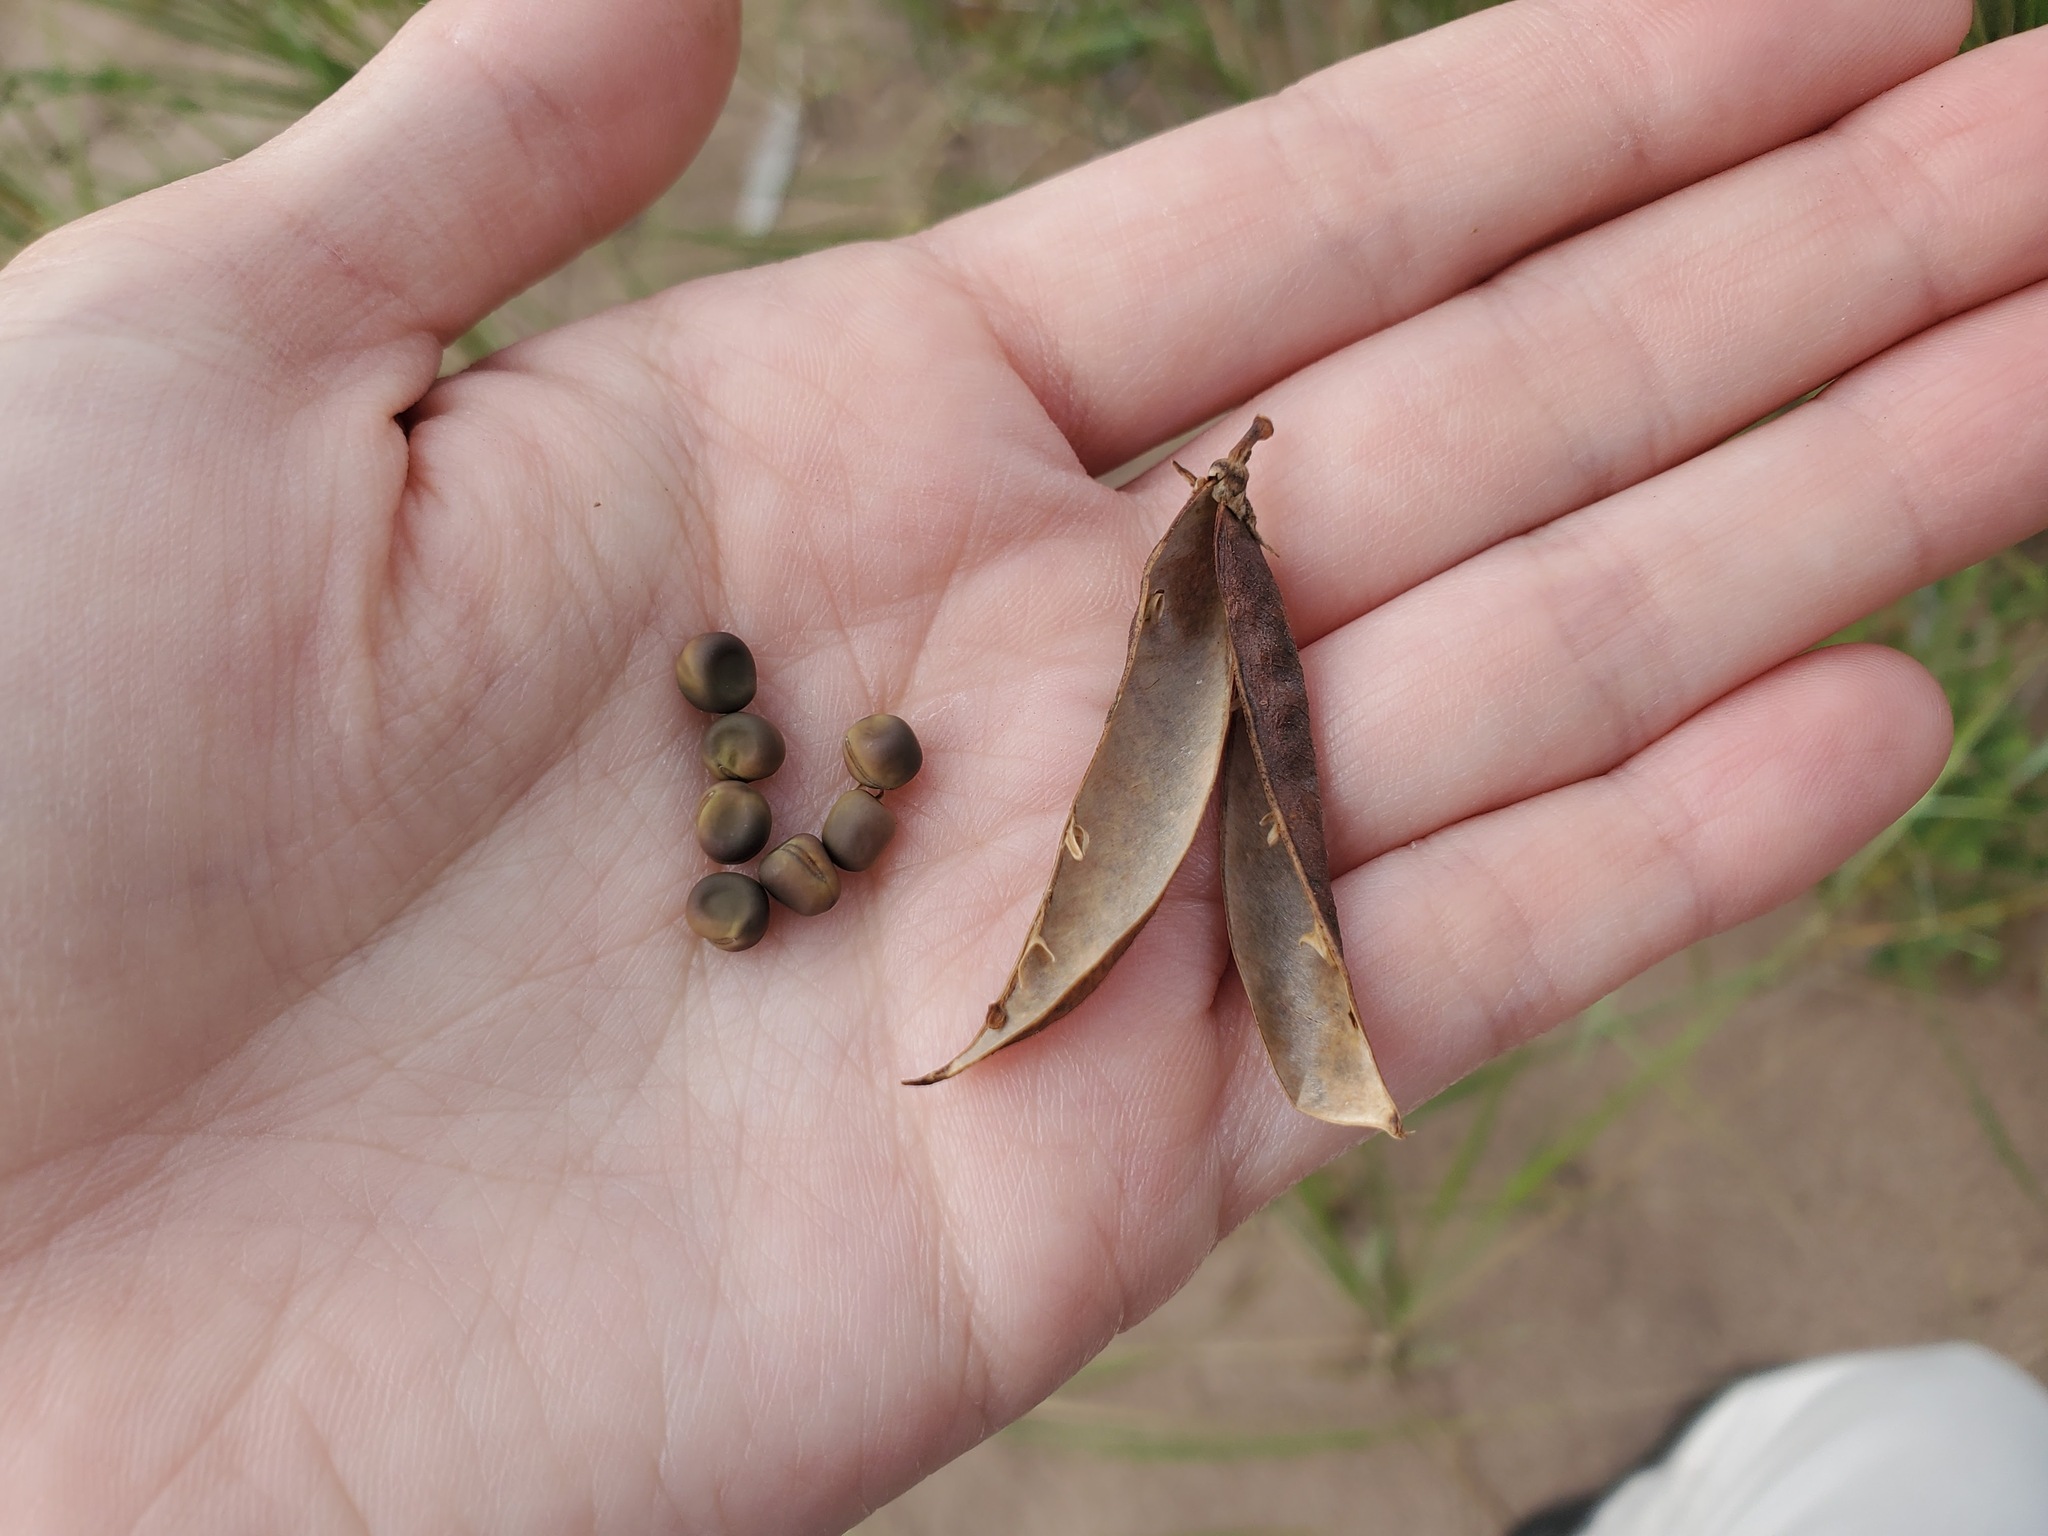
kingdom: Plantae
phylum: Tracheophyta
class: Magnoliopsida
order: Fabales
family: Fabaceae
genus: Lathyrus
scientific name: Lathyrus japonicus
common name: Sea pea
